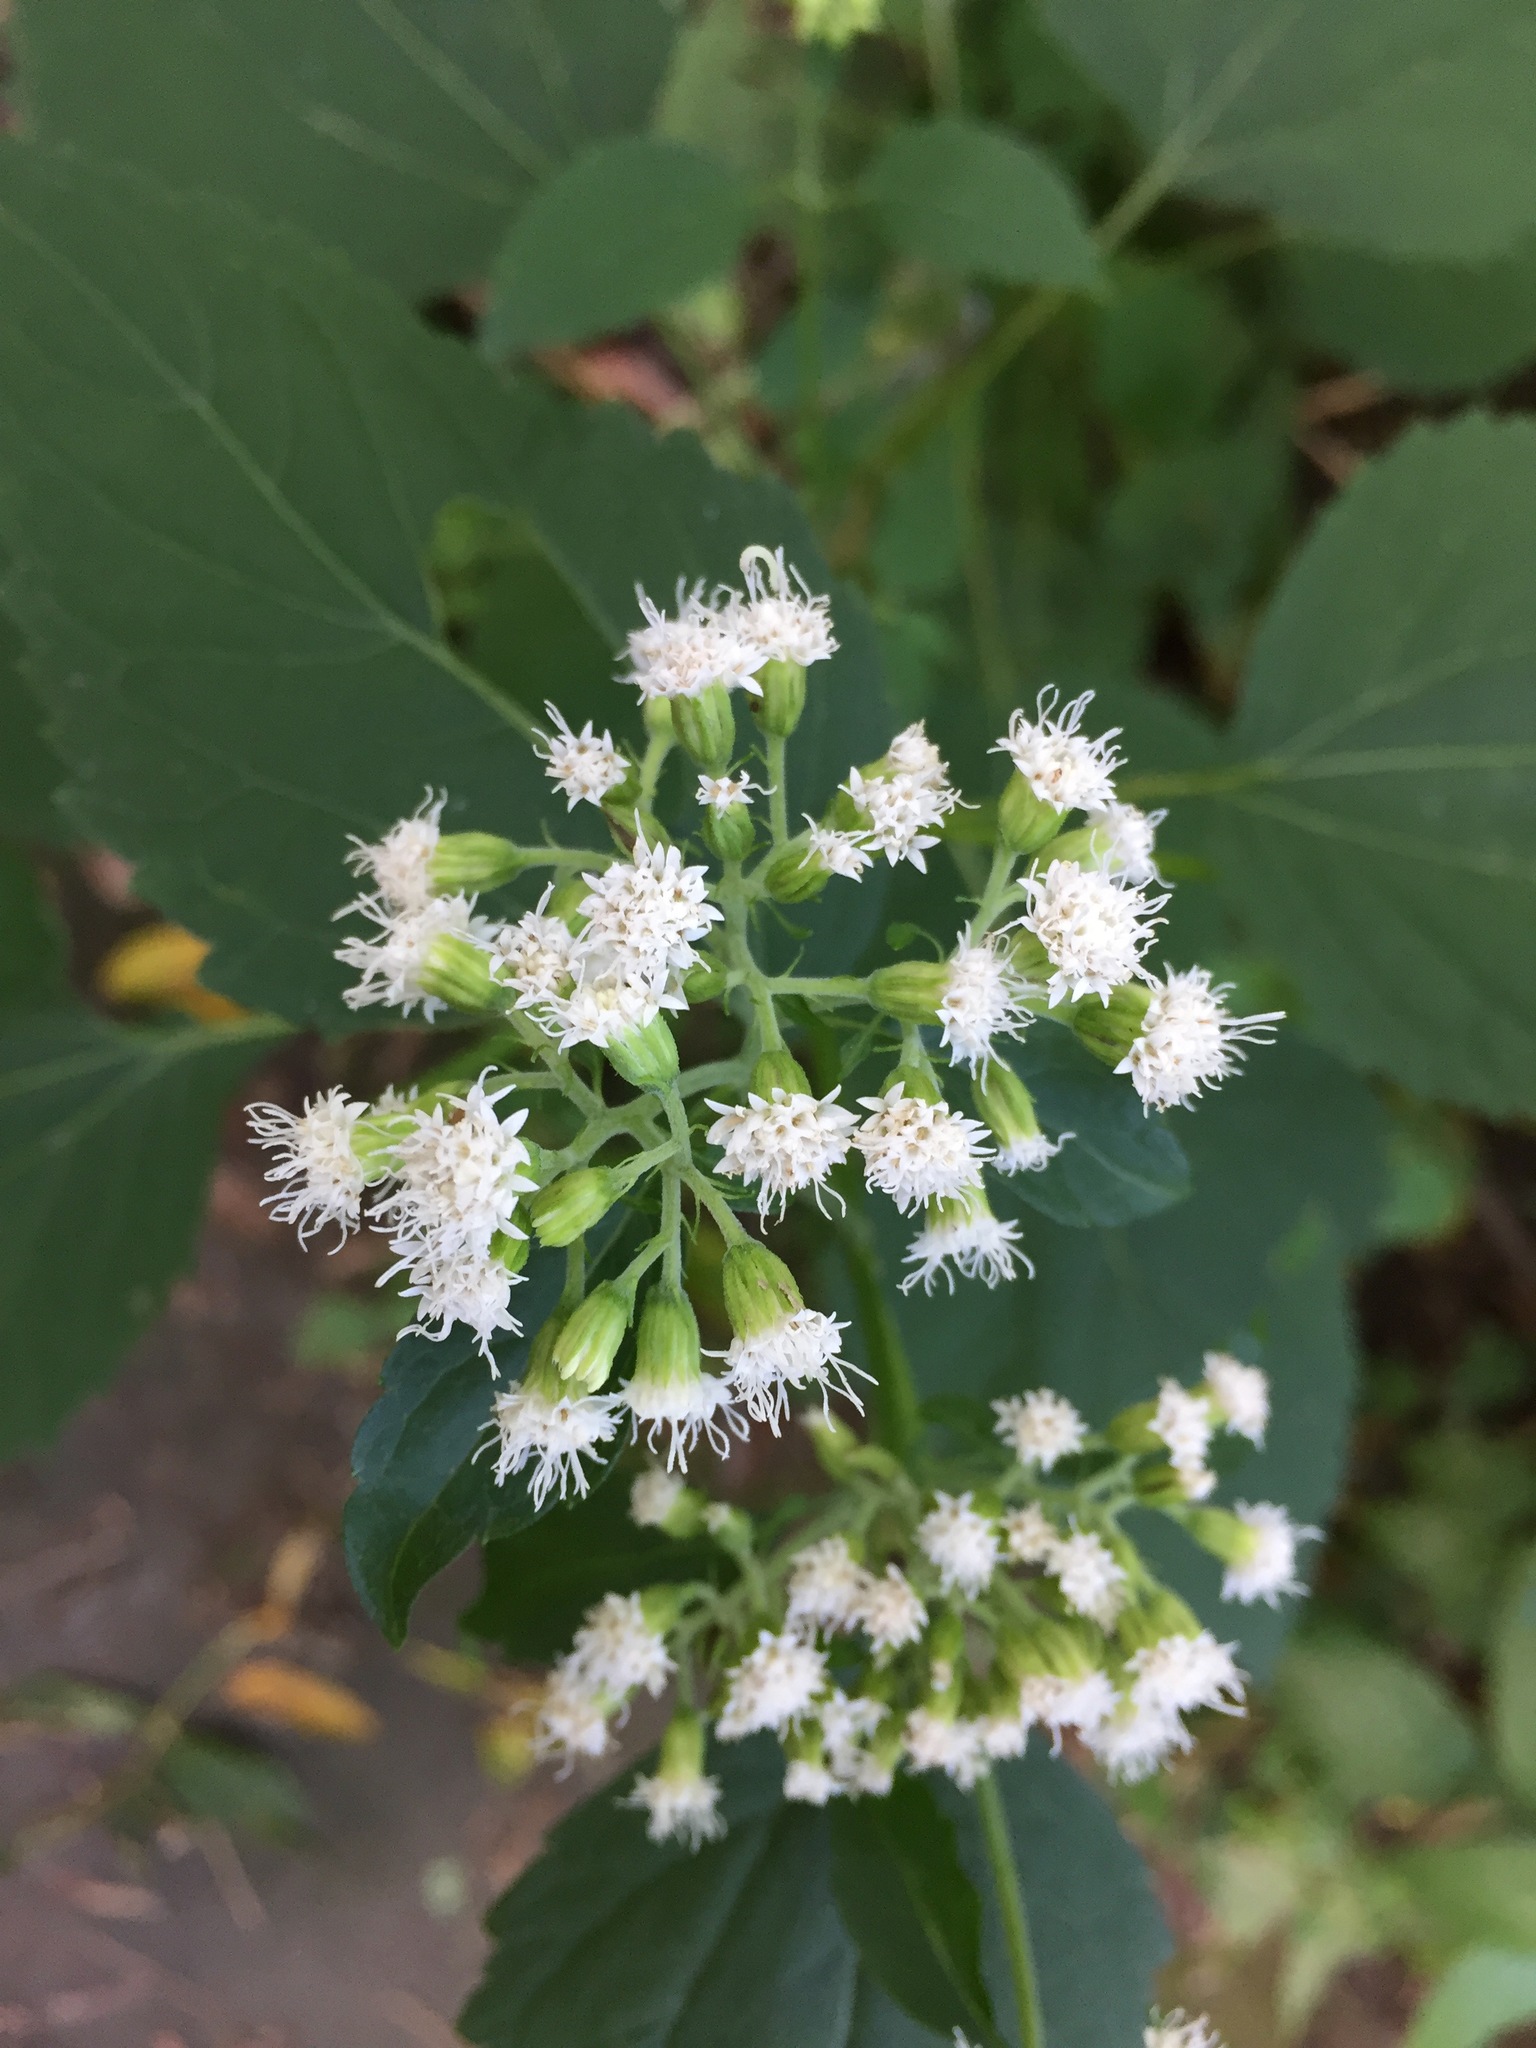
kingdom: Plantae
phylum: Tracheophyta
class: Magnoliopsida
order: Asterales
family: Asteraceae
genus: Ageratina
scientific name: Ageratina altissima
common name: White snakeroot
